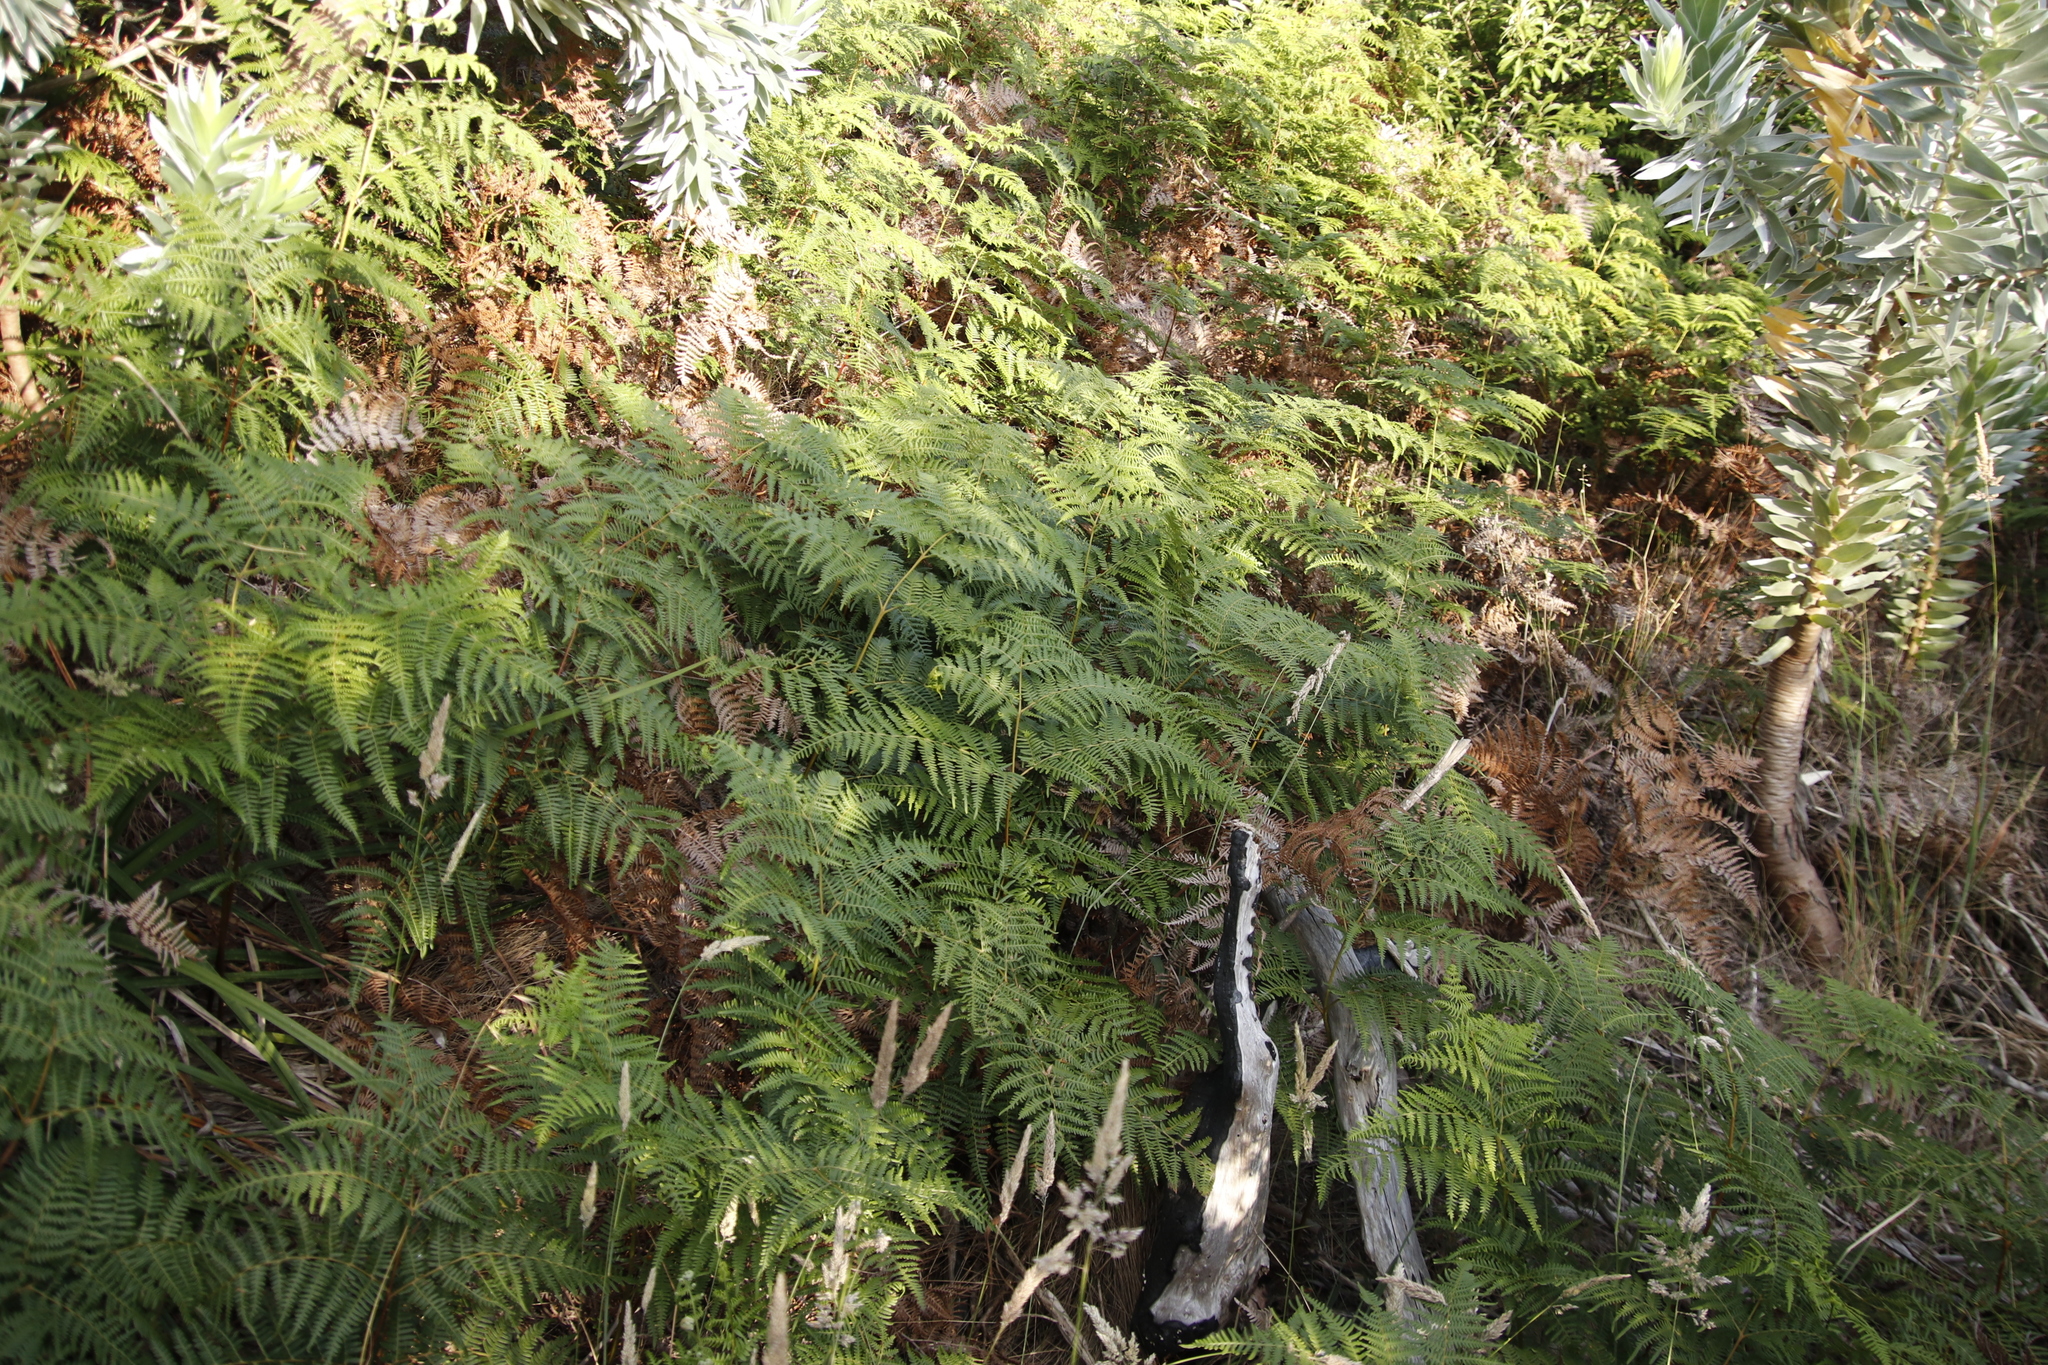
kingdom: Plantae
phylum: Tracheophyta
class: Polypodiopsida
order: Polypodiales
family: Dennstaedtiaceae
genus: Pteridium
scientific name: Pteridium aquilinum
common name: Bracken
